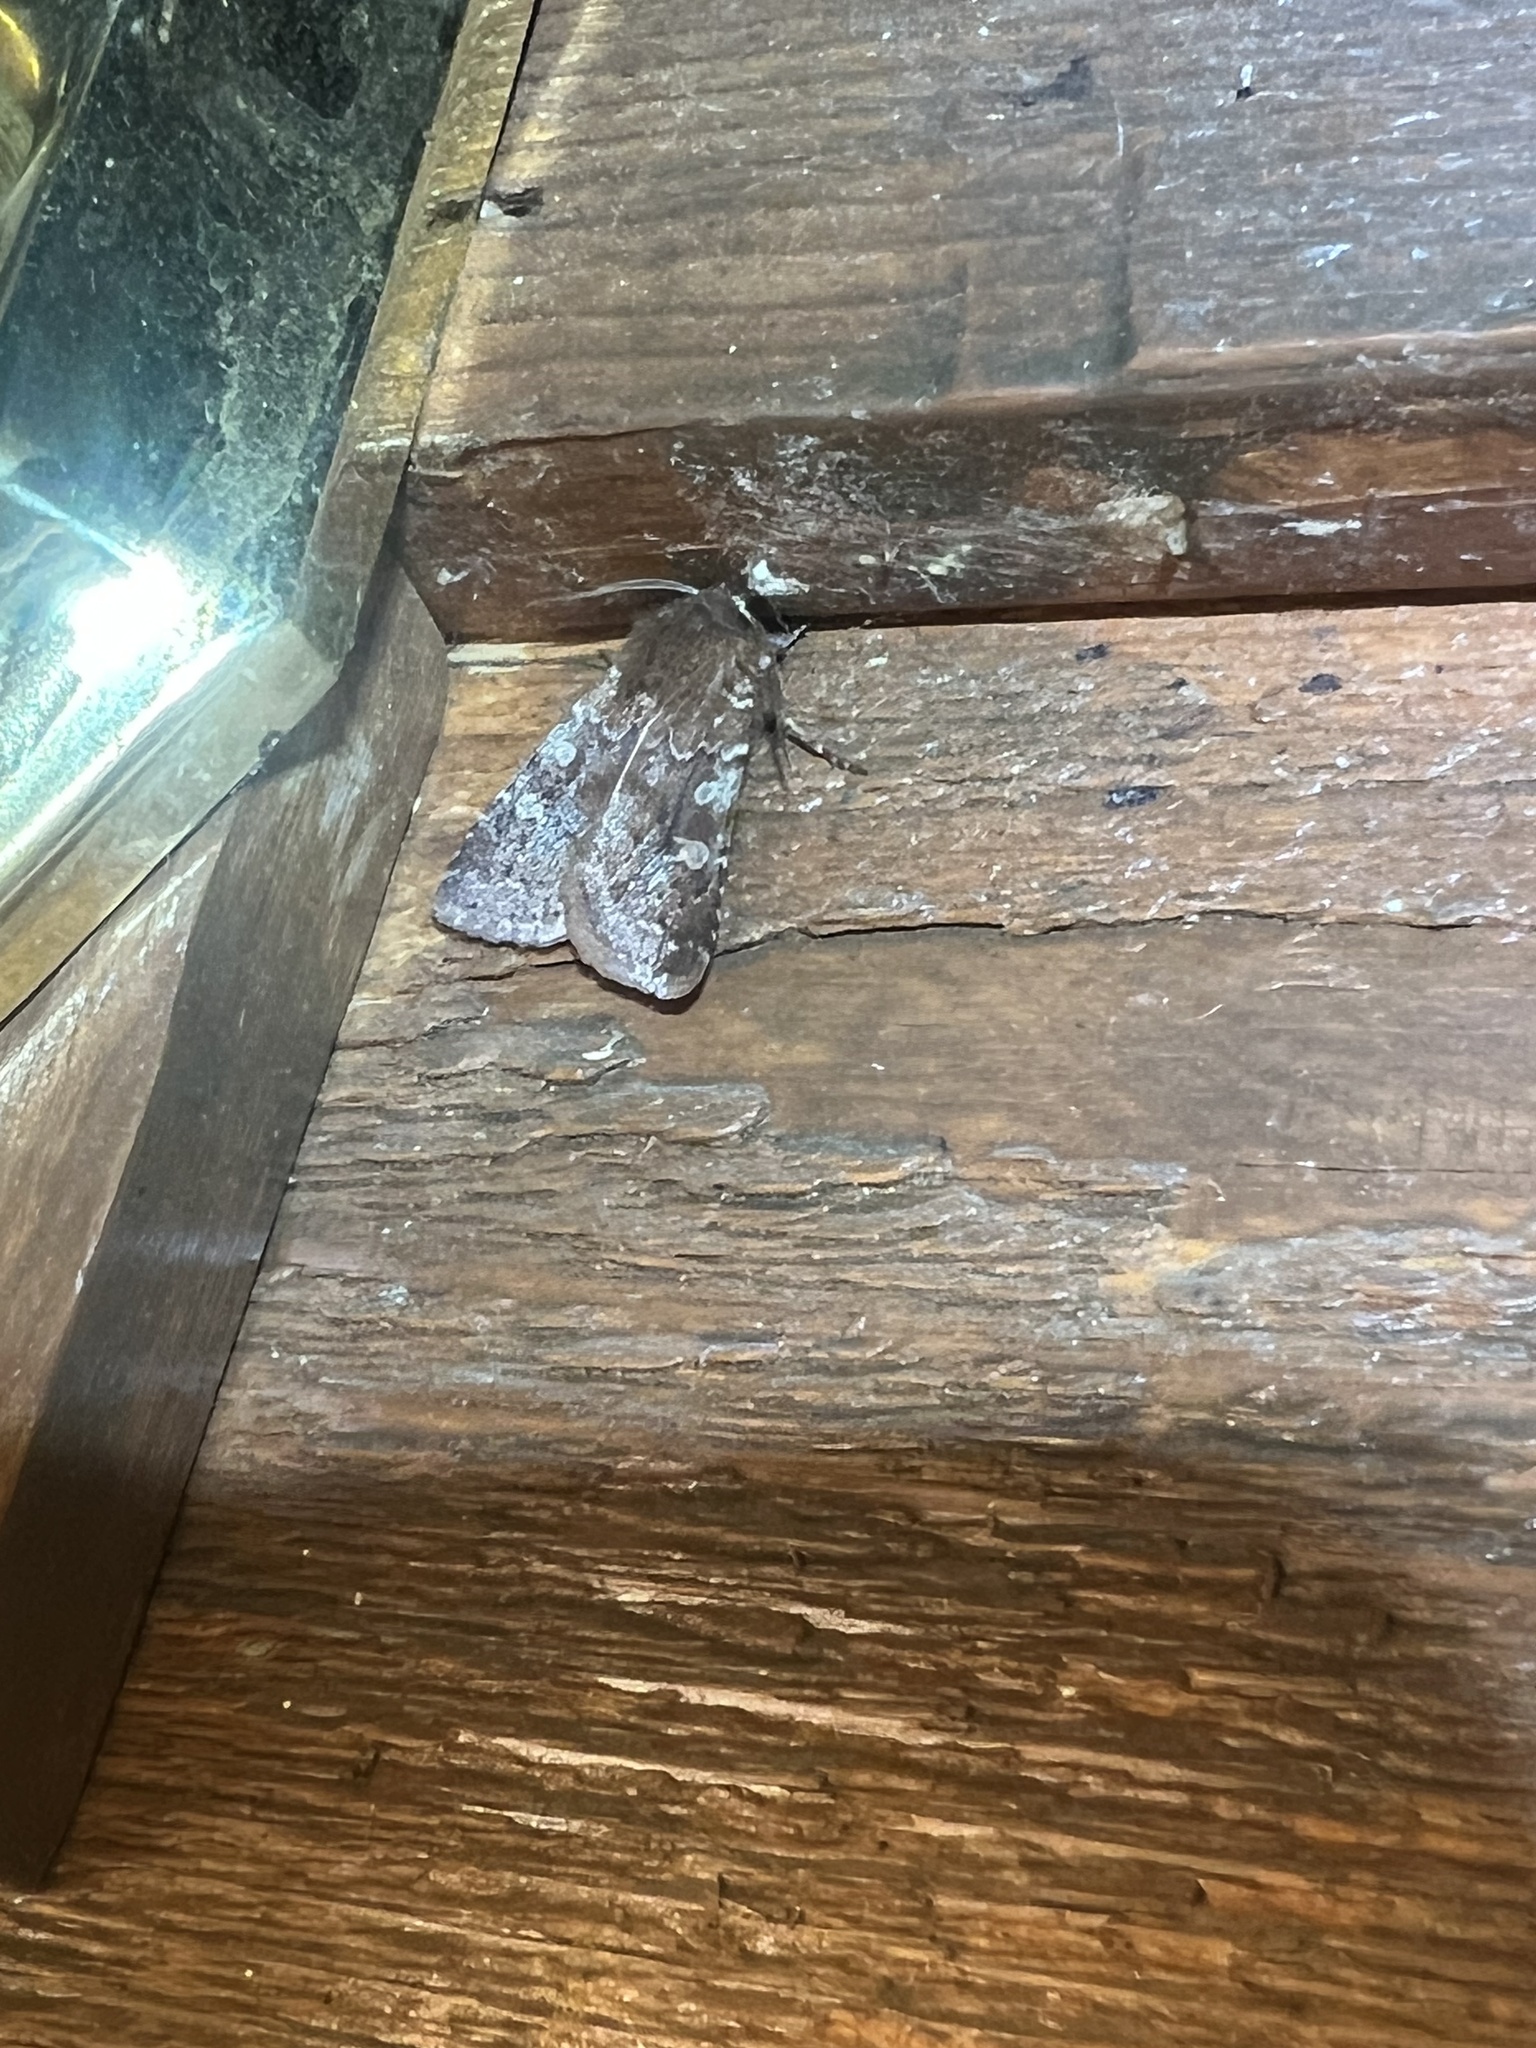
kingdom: Animalia
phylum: Arthropoda
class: Insecta
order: Lepidoptera
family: Noctuidae
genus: Cerastis
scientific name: Cerastis tenebrifera
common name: Reddish speckled dart
